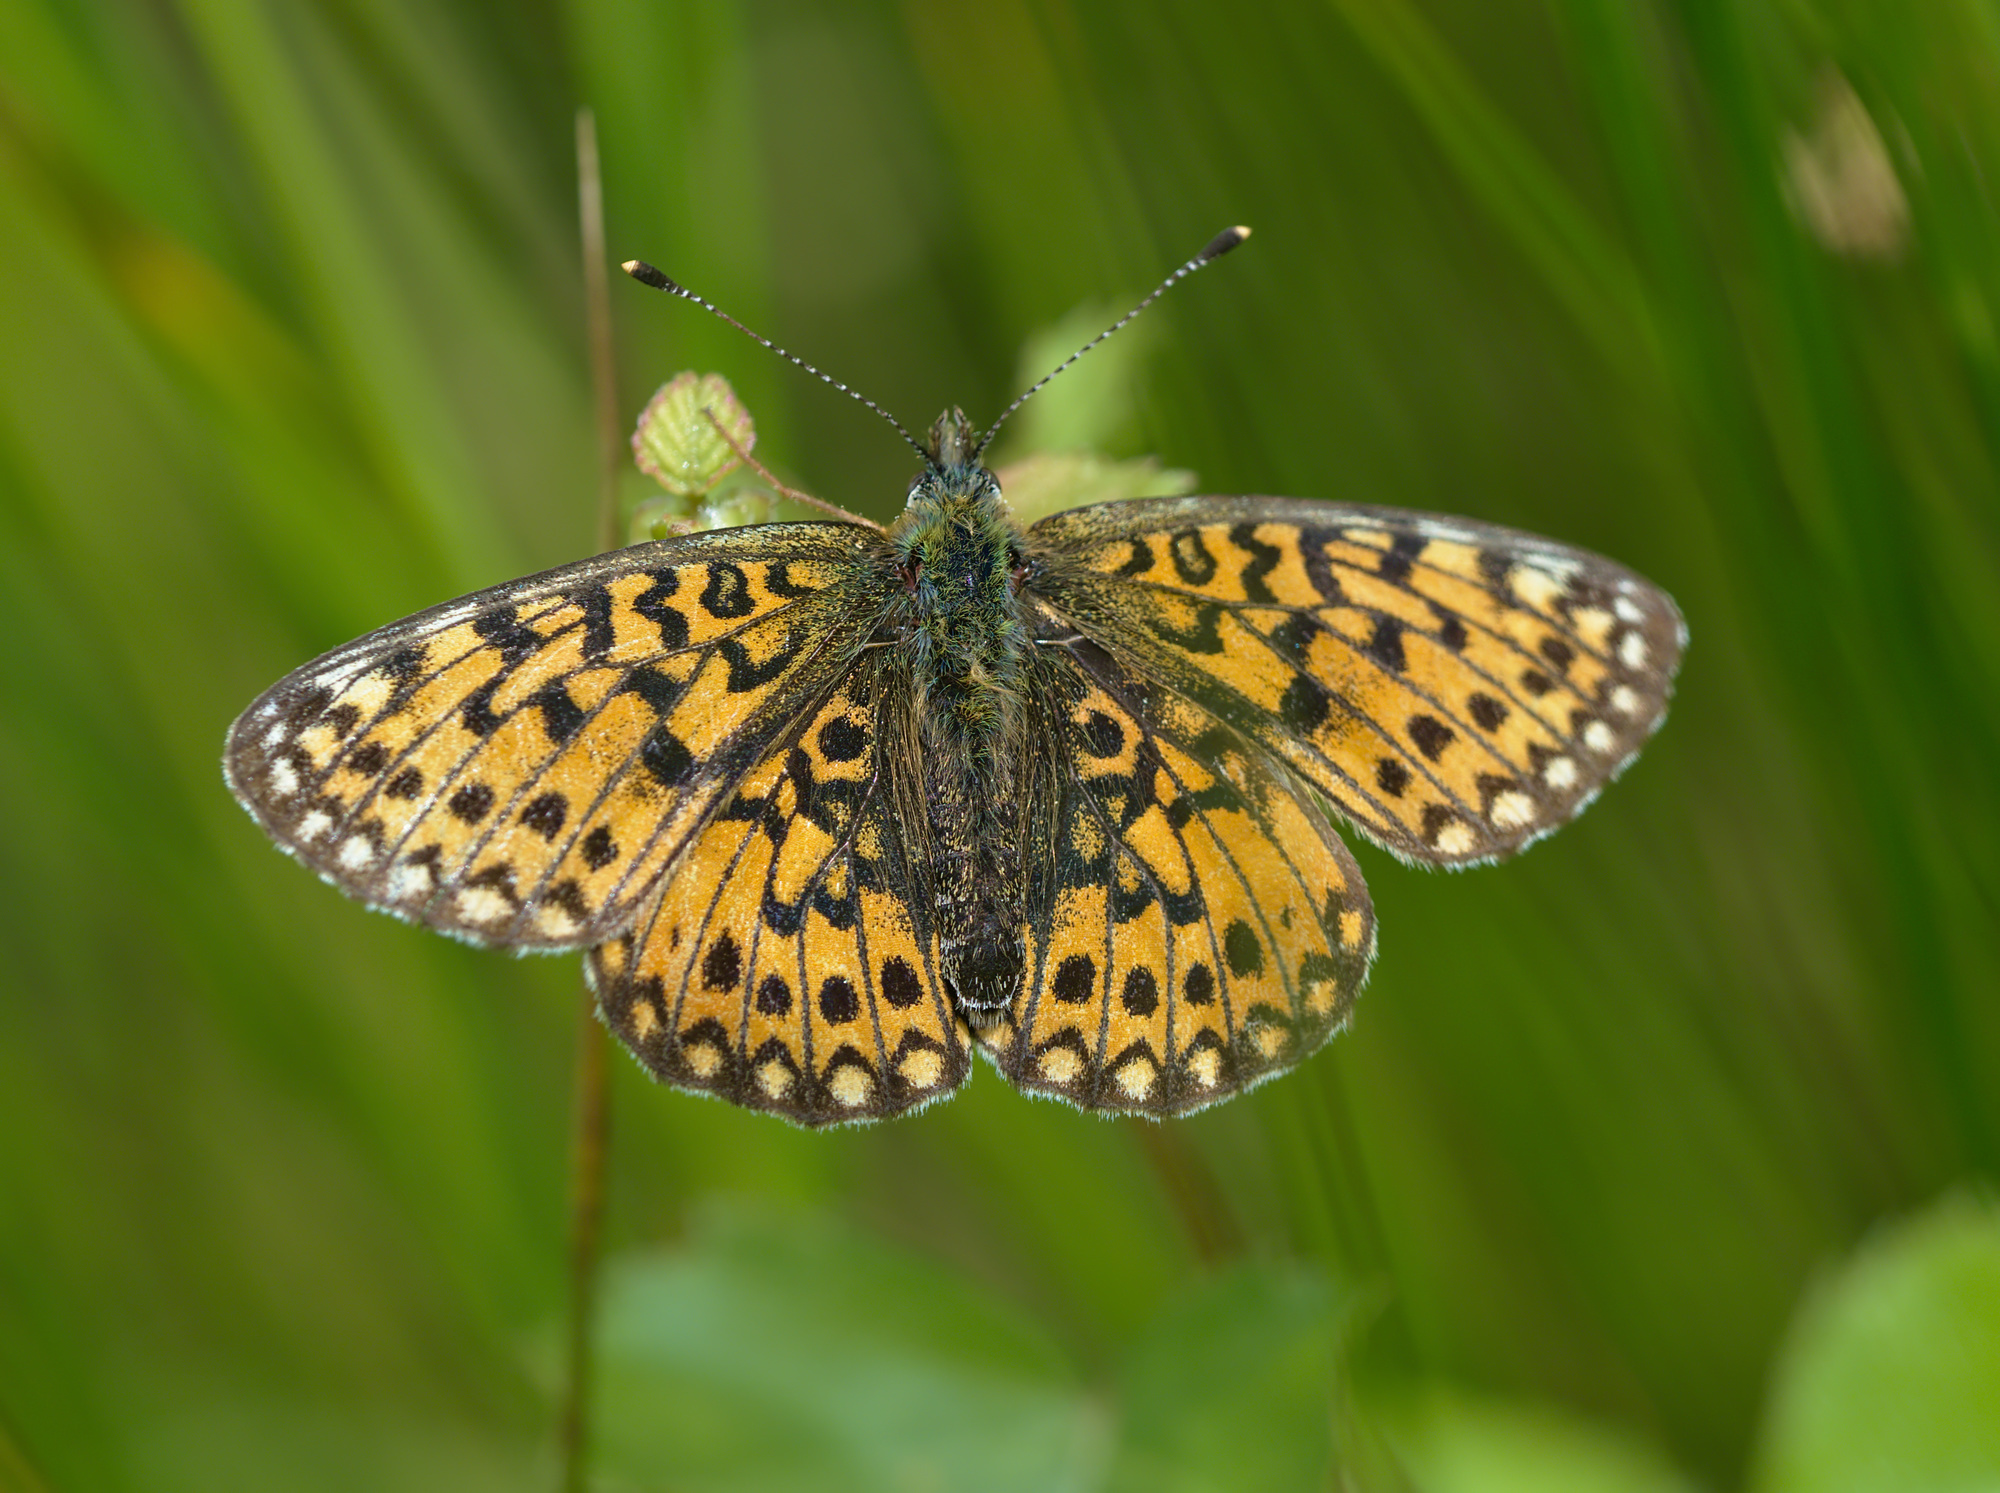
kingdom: Animalia
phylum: Arthropoda
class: Insecta
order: Lepidoptera
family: Nymphalidae
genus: Boloria
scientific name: Boloria selene
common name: Small pearl-bordered fritillary
